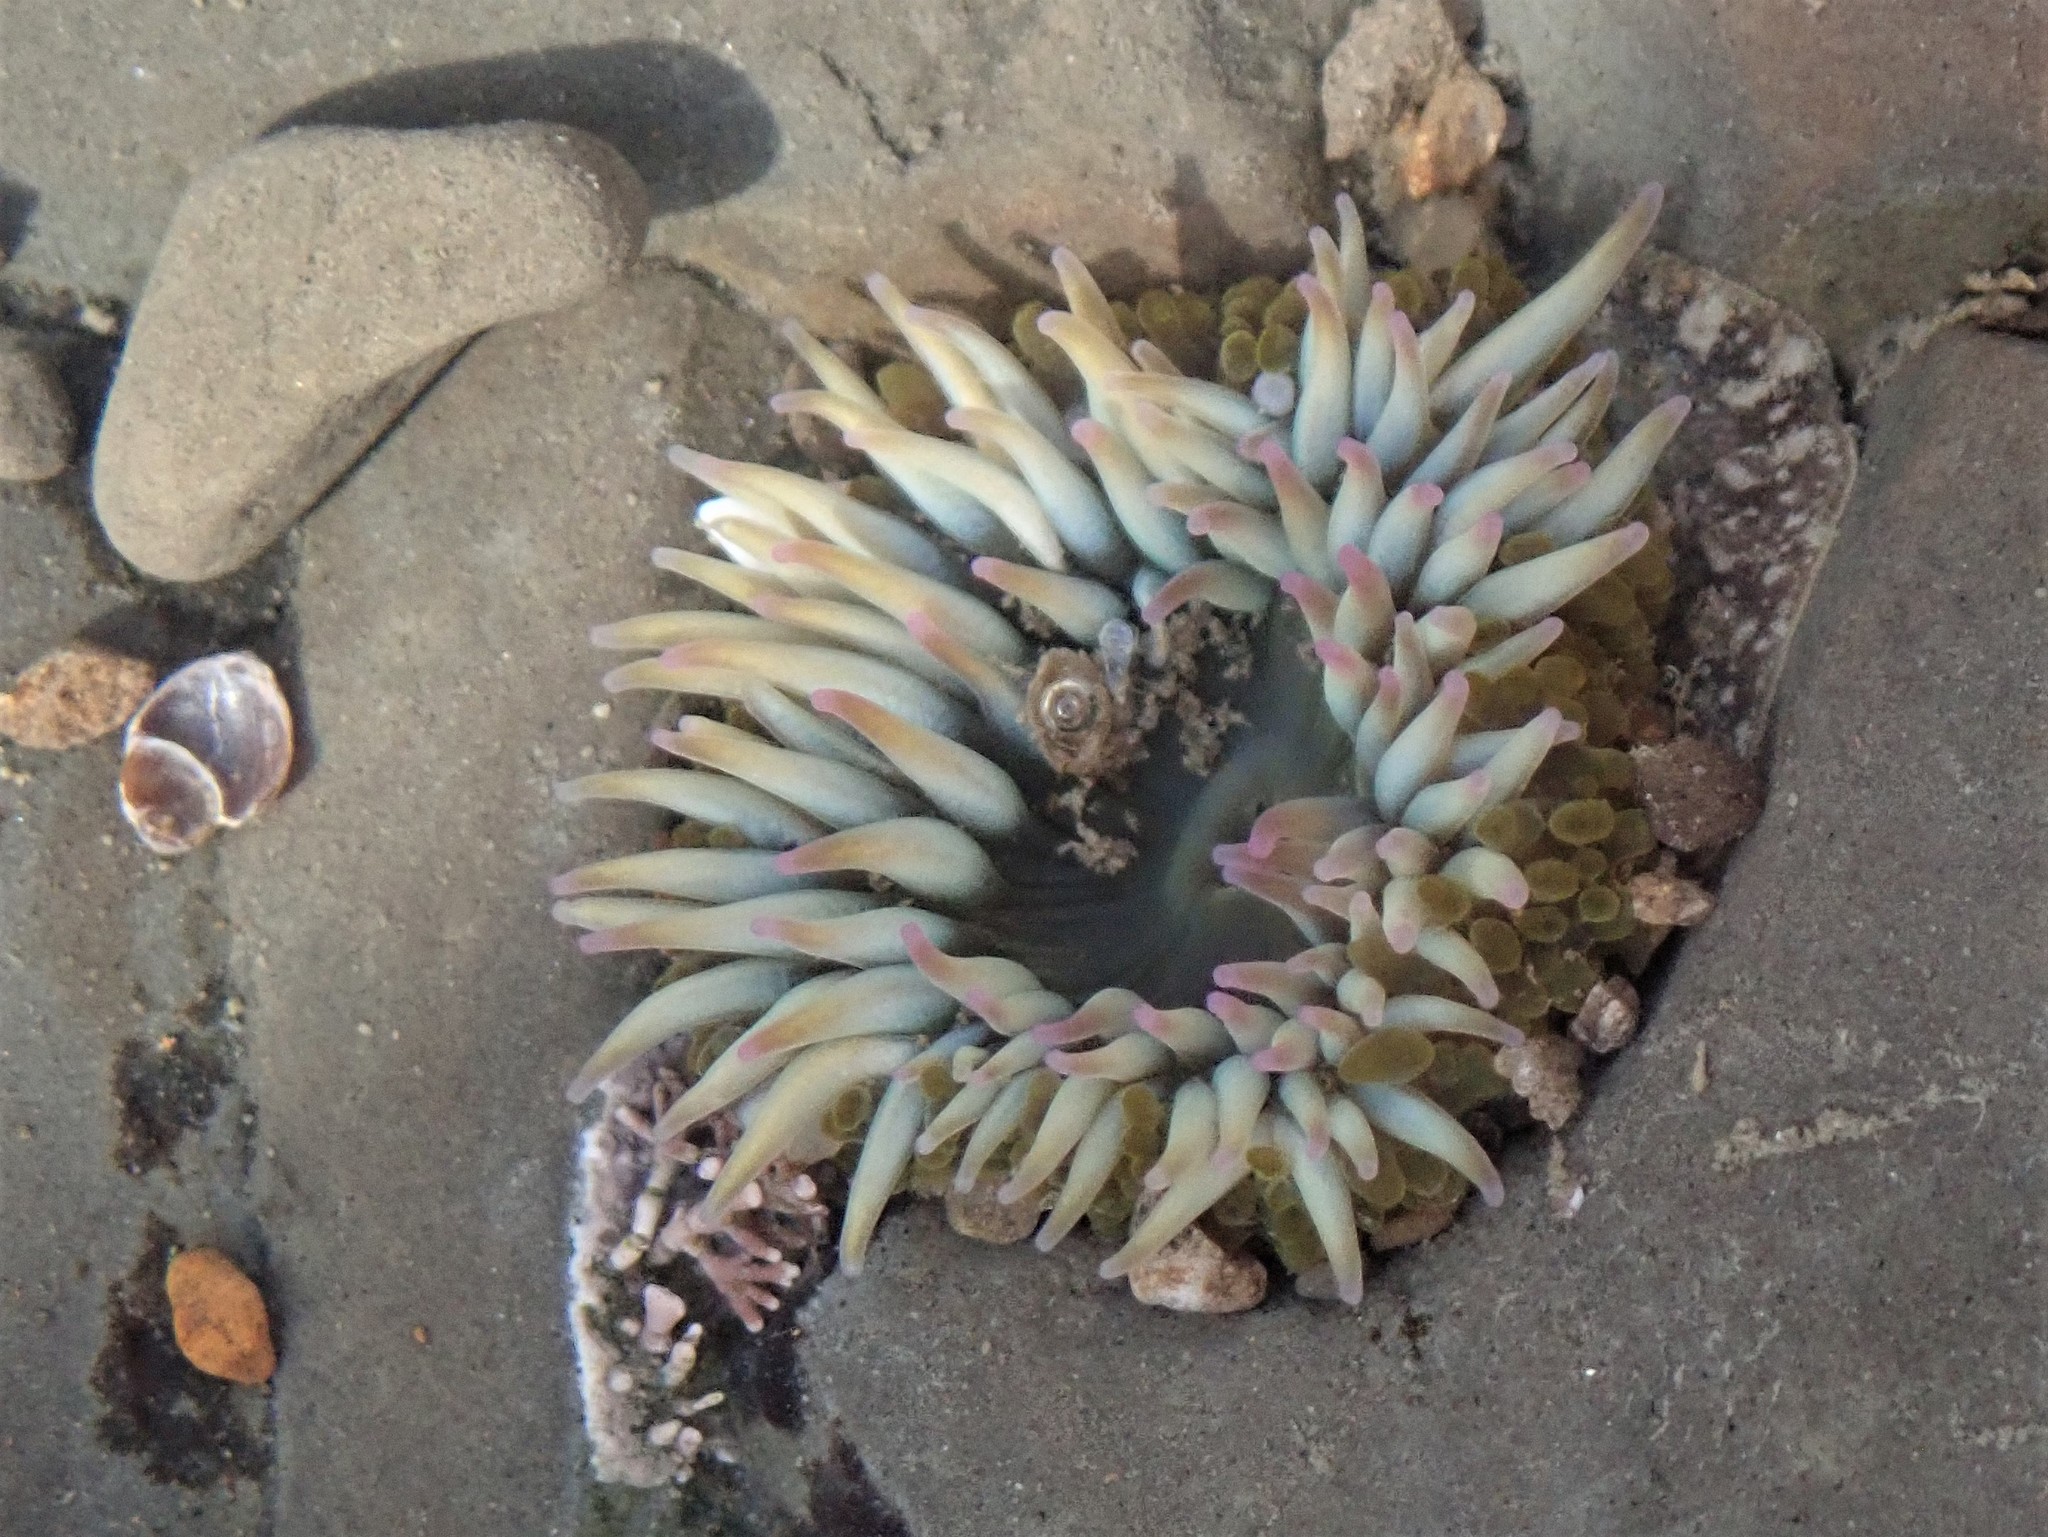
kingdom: Animalia
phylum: Cnidaria
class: Anthozoa
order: Actiniaria
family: Actiniidae
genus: Anthopleura
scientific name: Anthopleura elegantissima
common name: Clonal anemone
